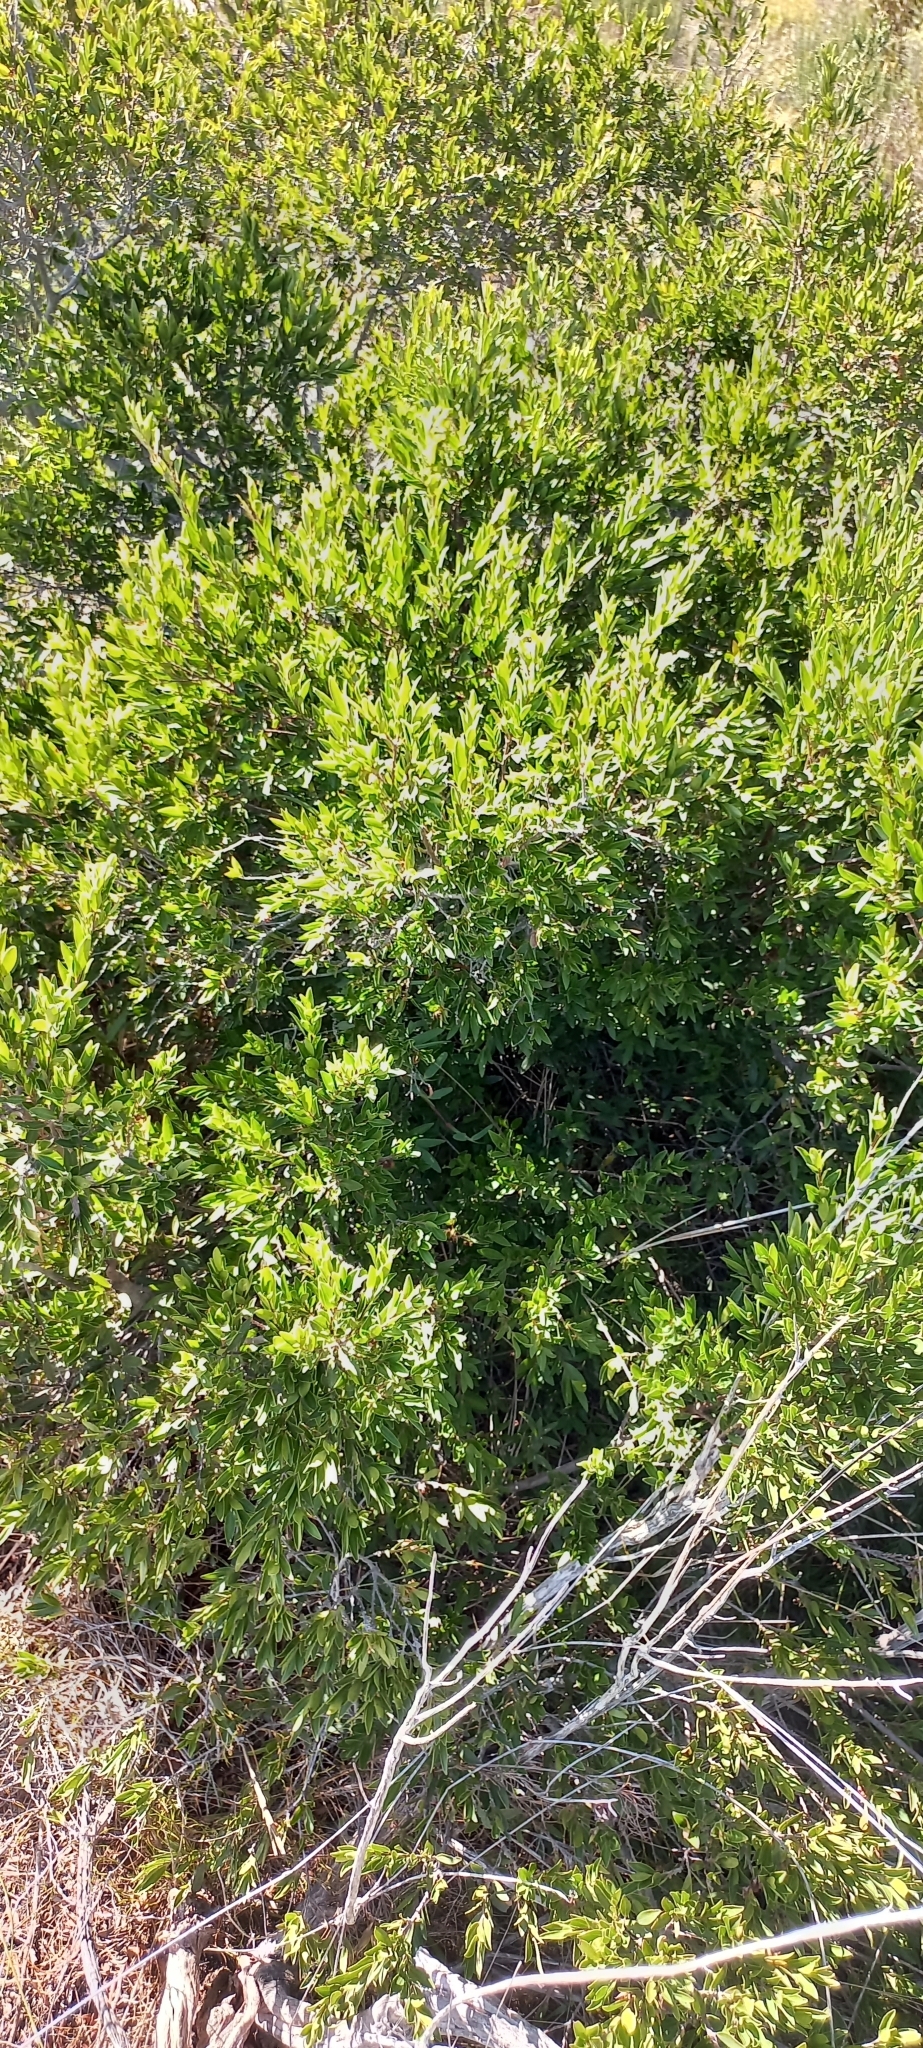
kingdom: Plantae
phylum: Tracheophyta
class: Magnoliopsida
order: Ericales
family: Ebenaceae
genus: Diospyros
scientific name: Diospyros glabra
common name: Fynbos star apple
